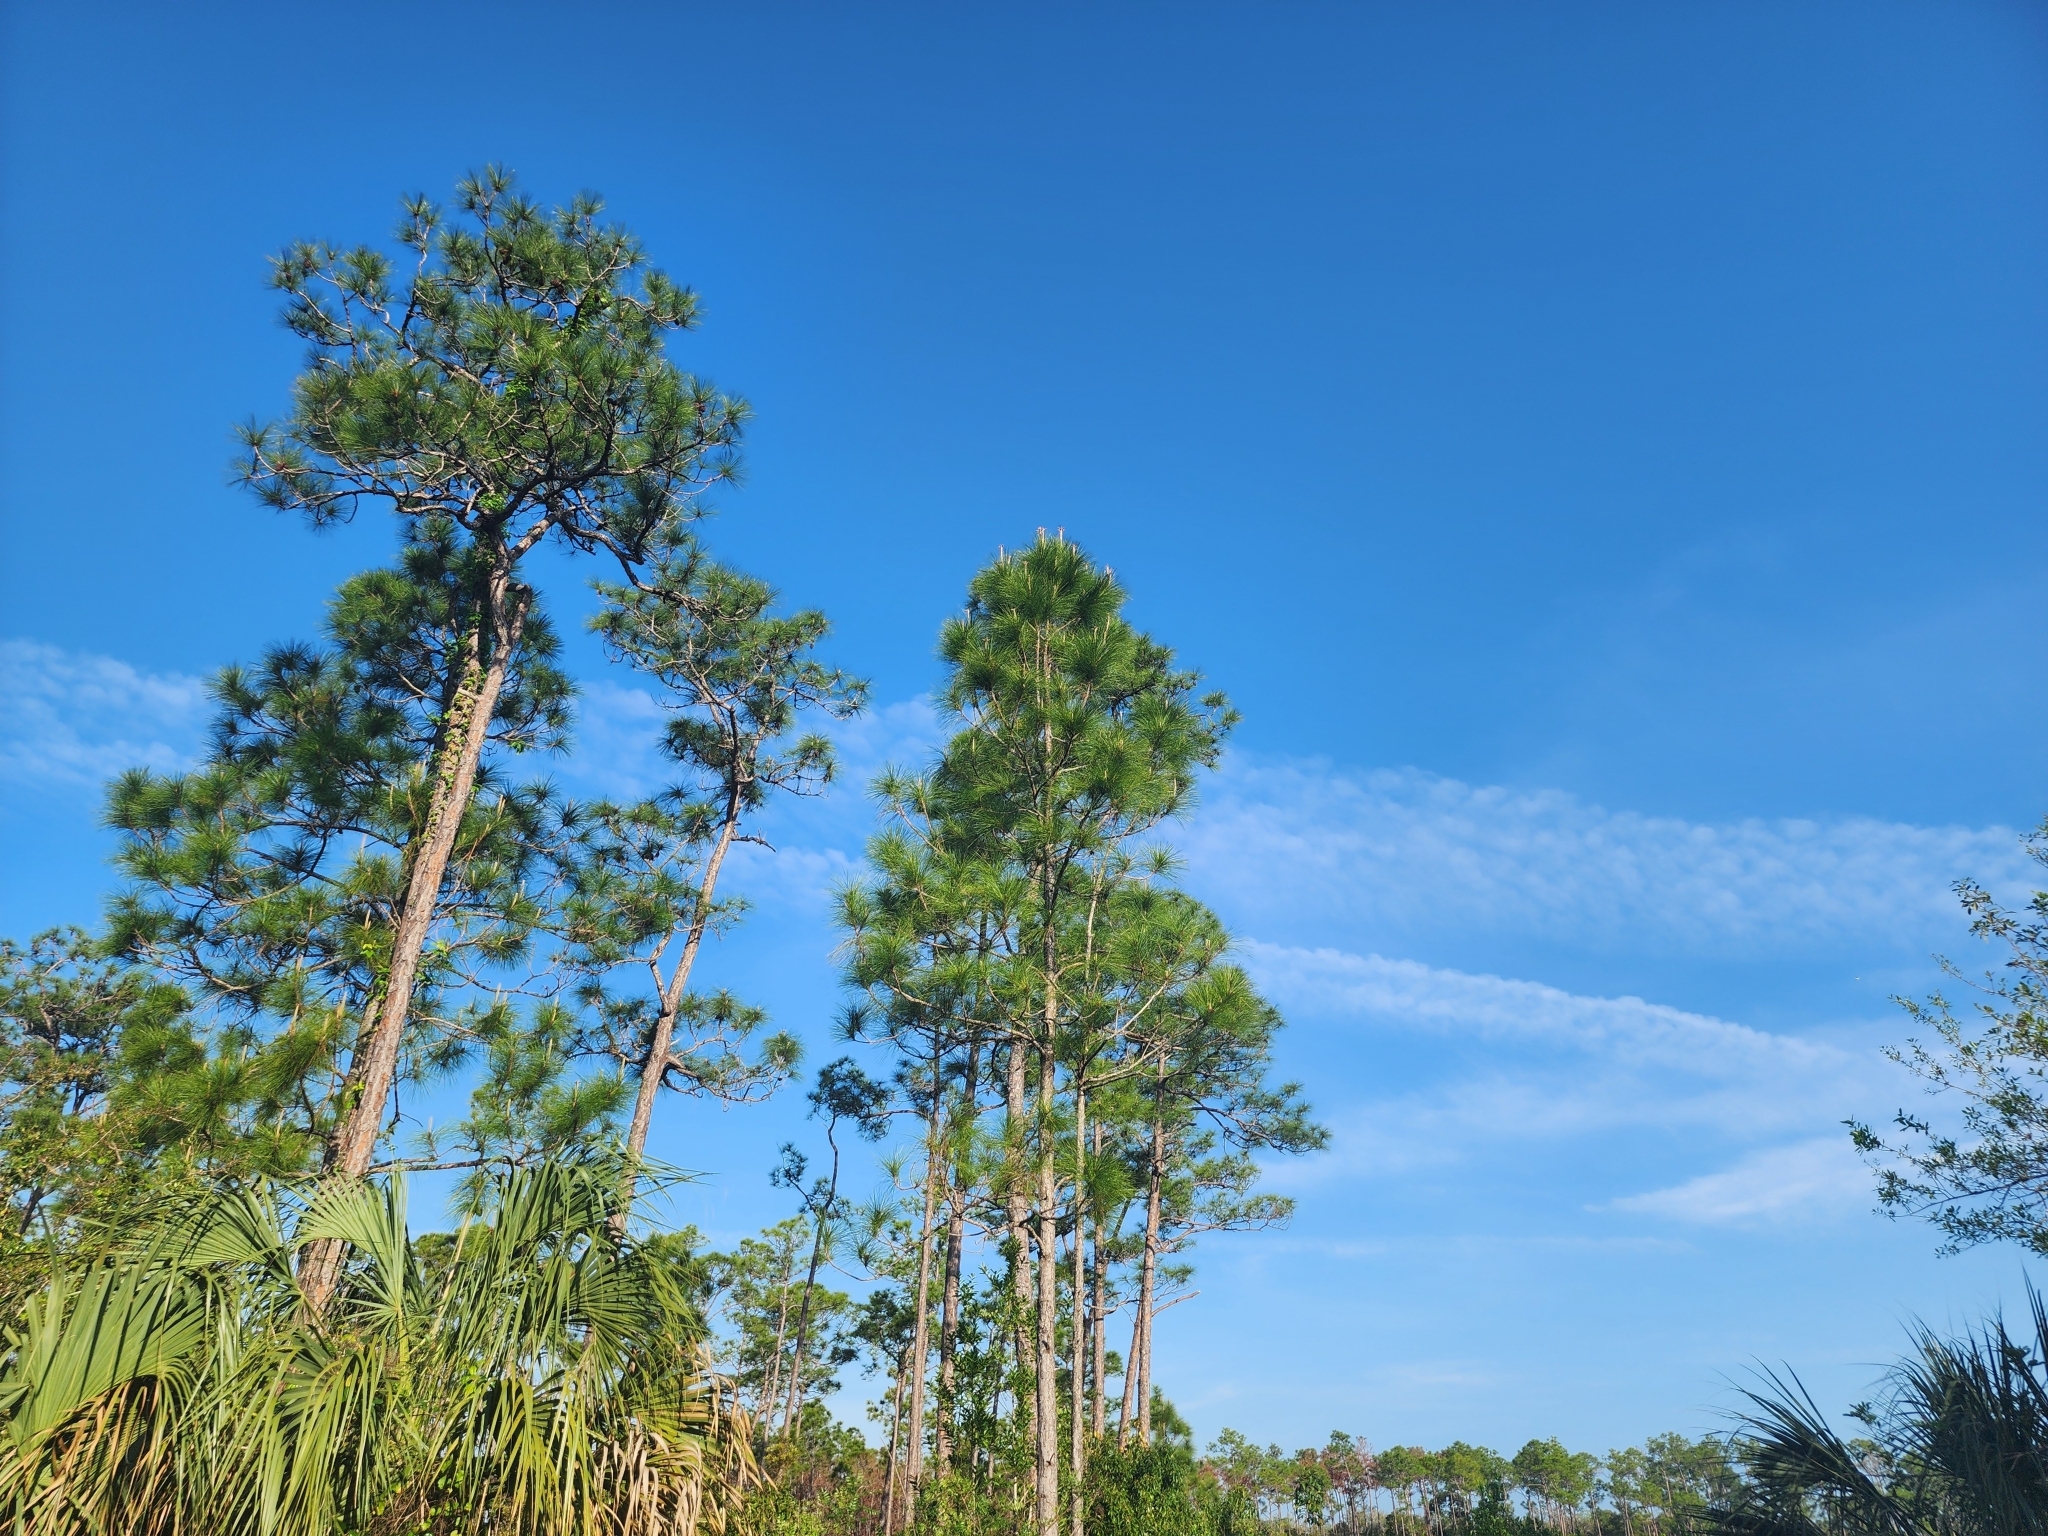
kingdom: Plantae
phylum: Tracheophyta
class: Pinopsida
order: Pinales
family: Pinaceae
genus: Pinus
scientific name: Pinus elliottii
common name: Slash pine
